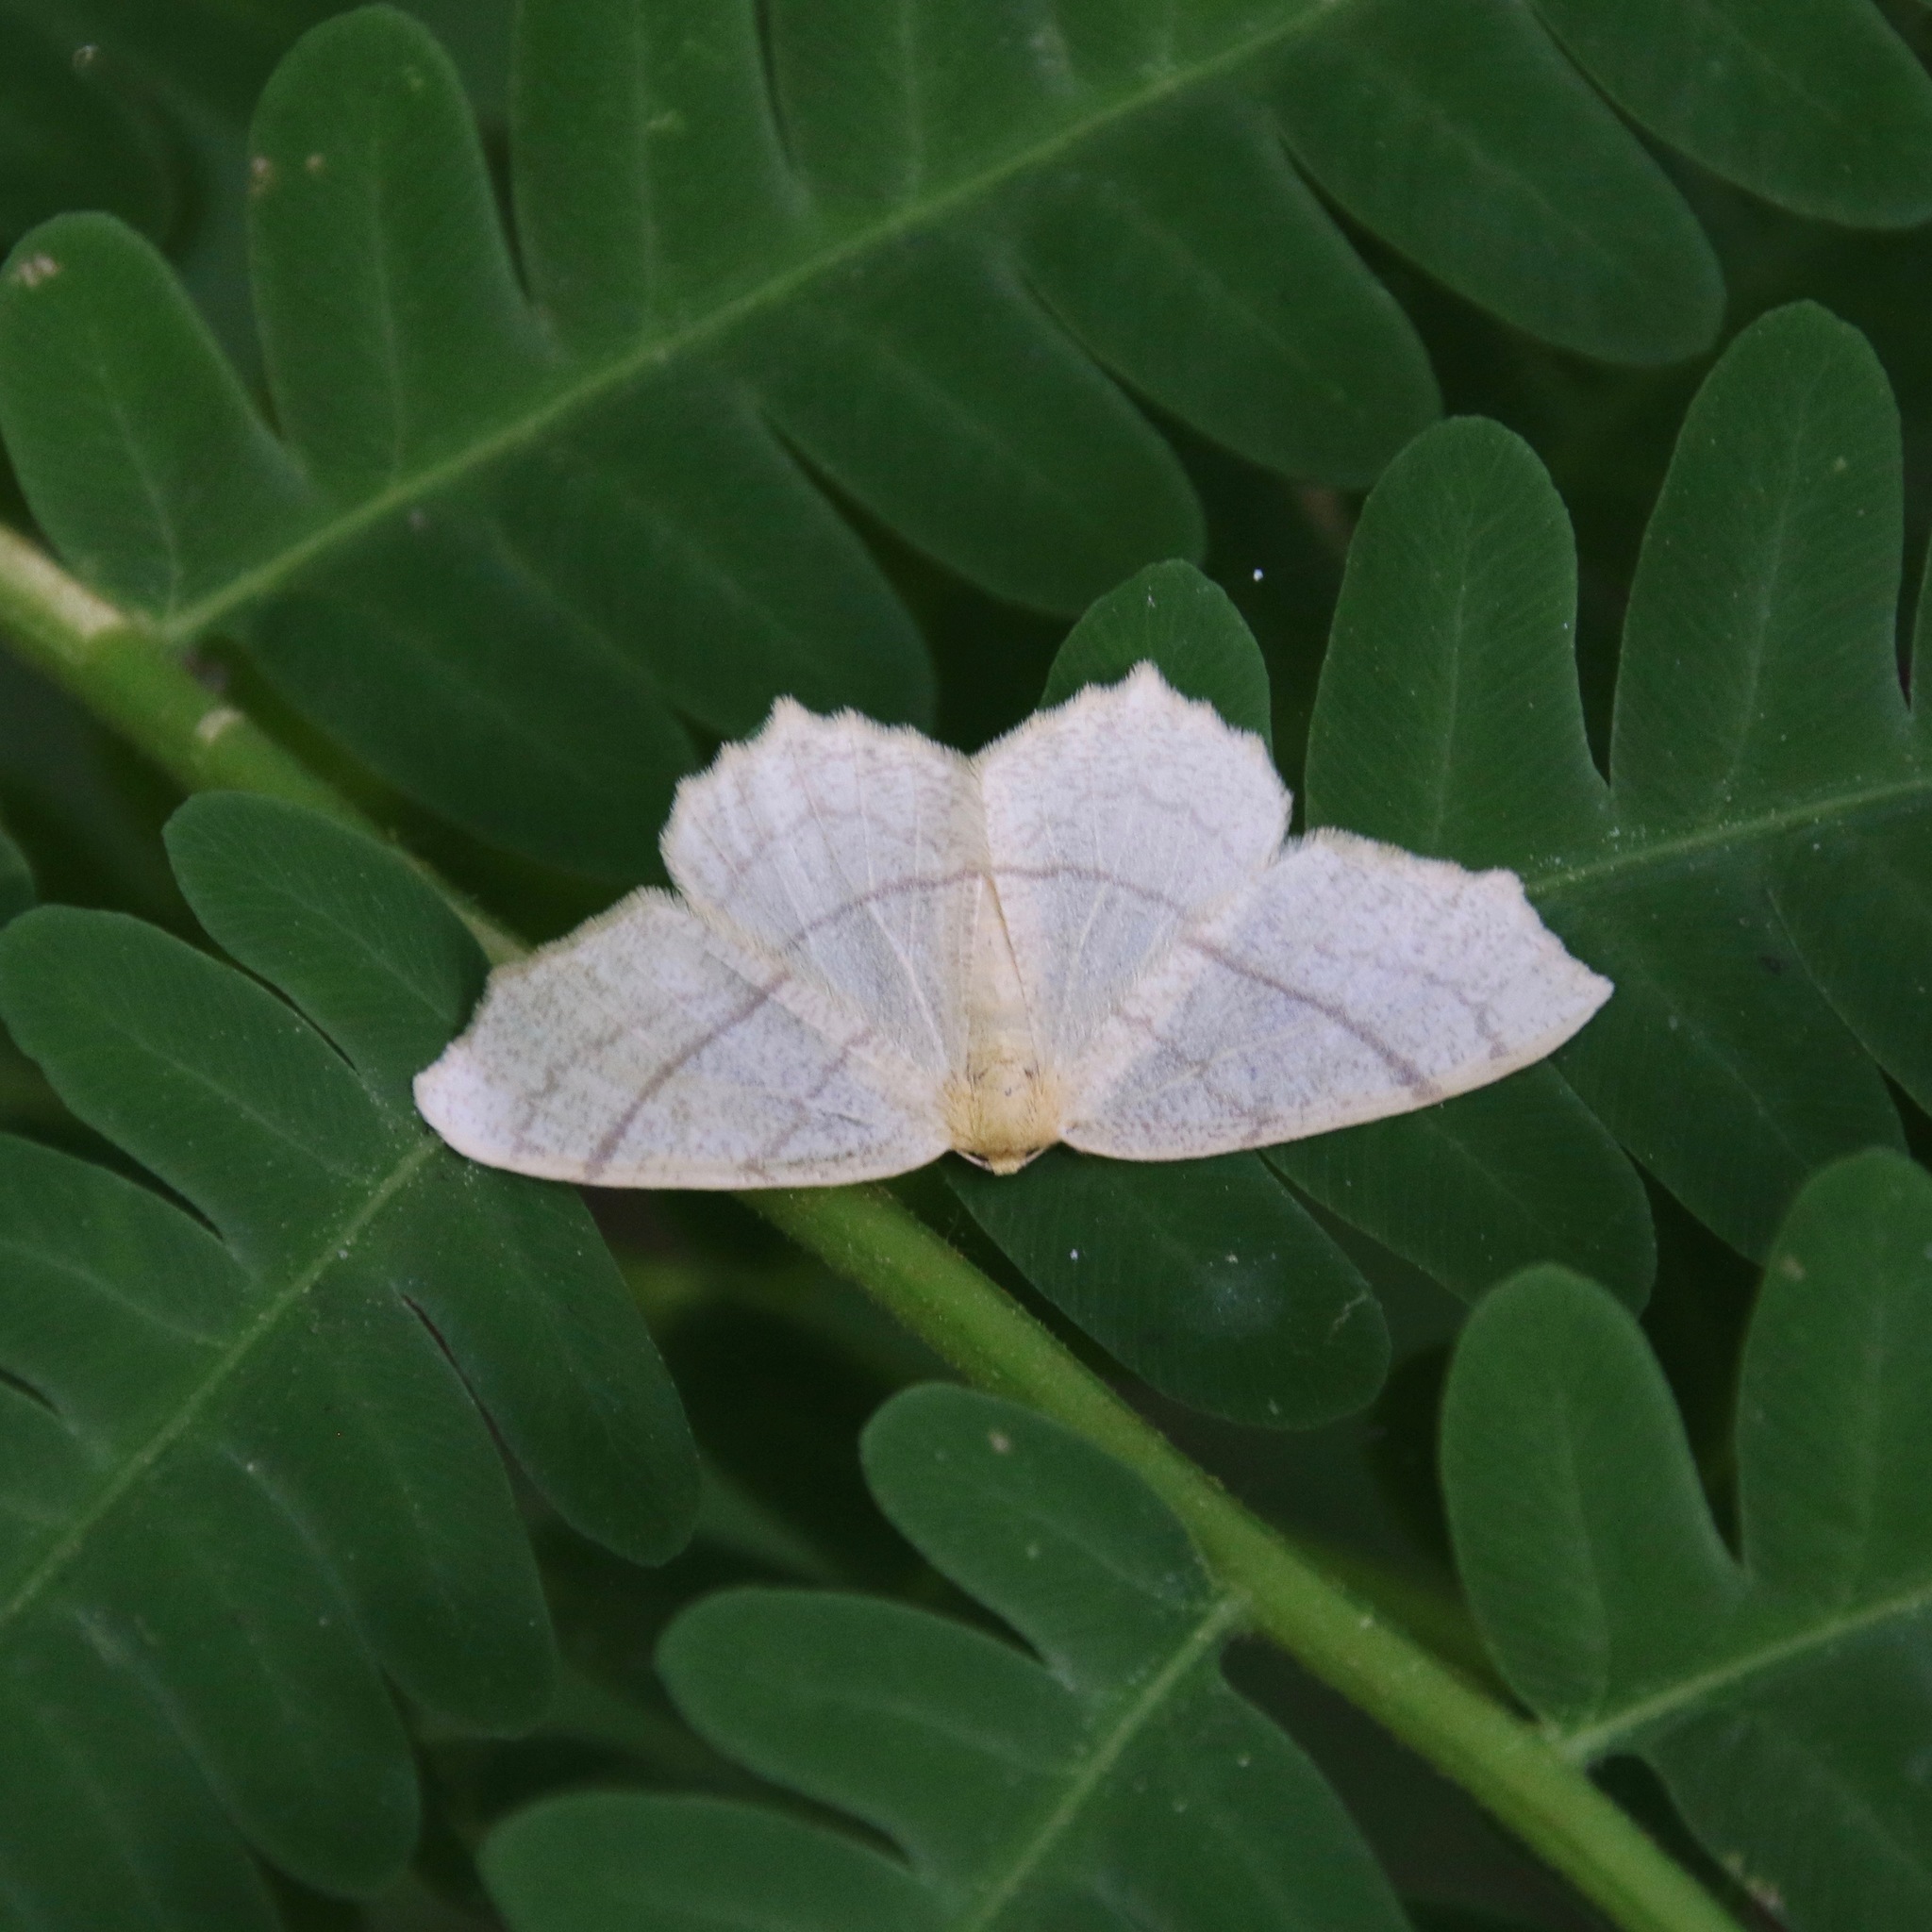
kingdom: Animalia
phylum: Arthropoda
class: Insecta
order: Lepidoptera
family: Geometridae
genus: Besma
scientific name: Besma endropiaria
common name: Straw besma
